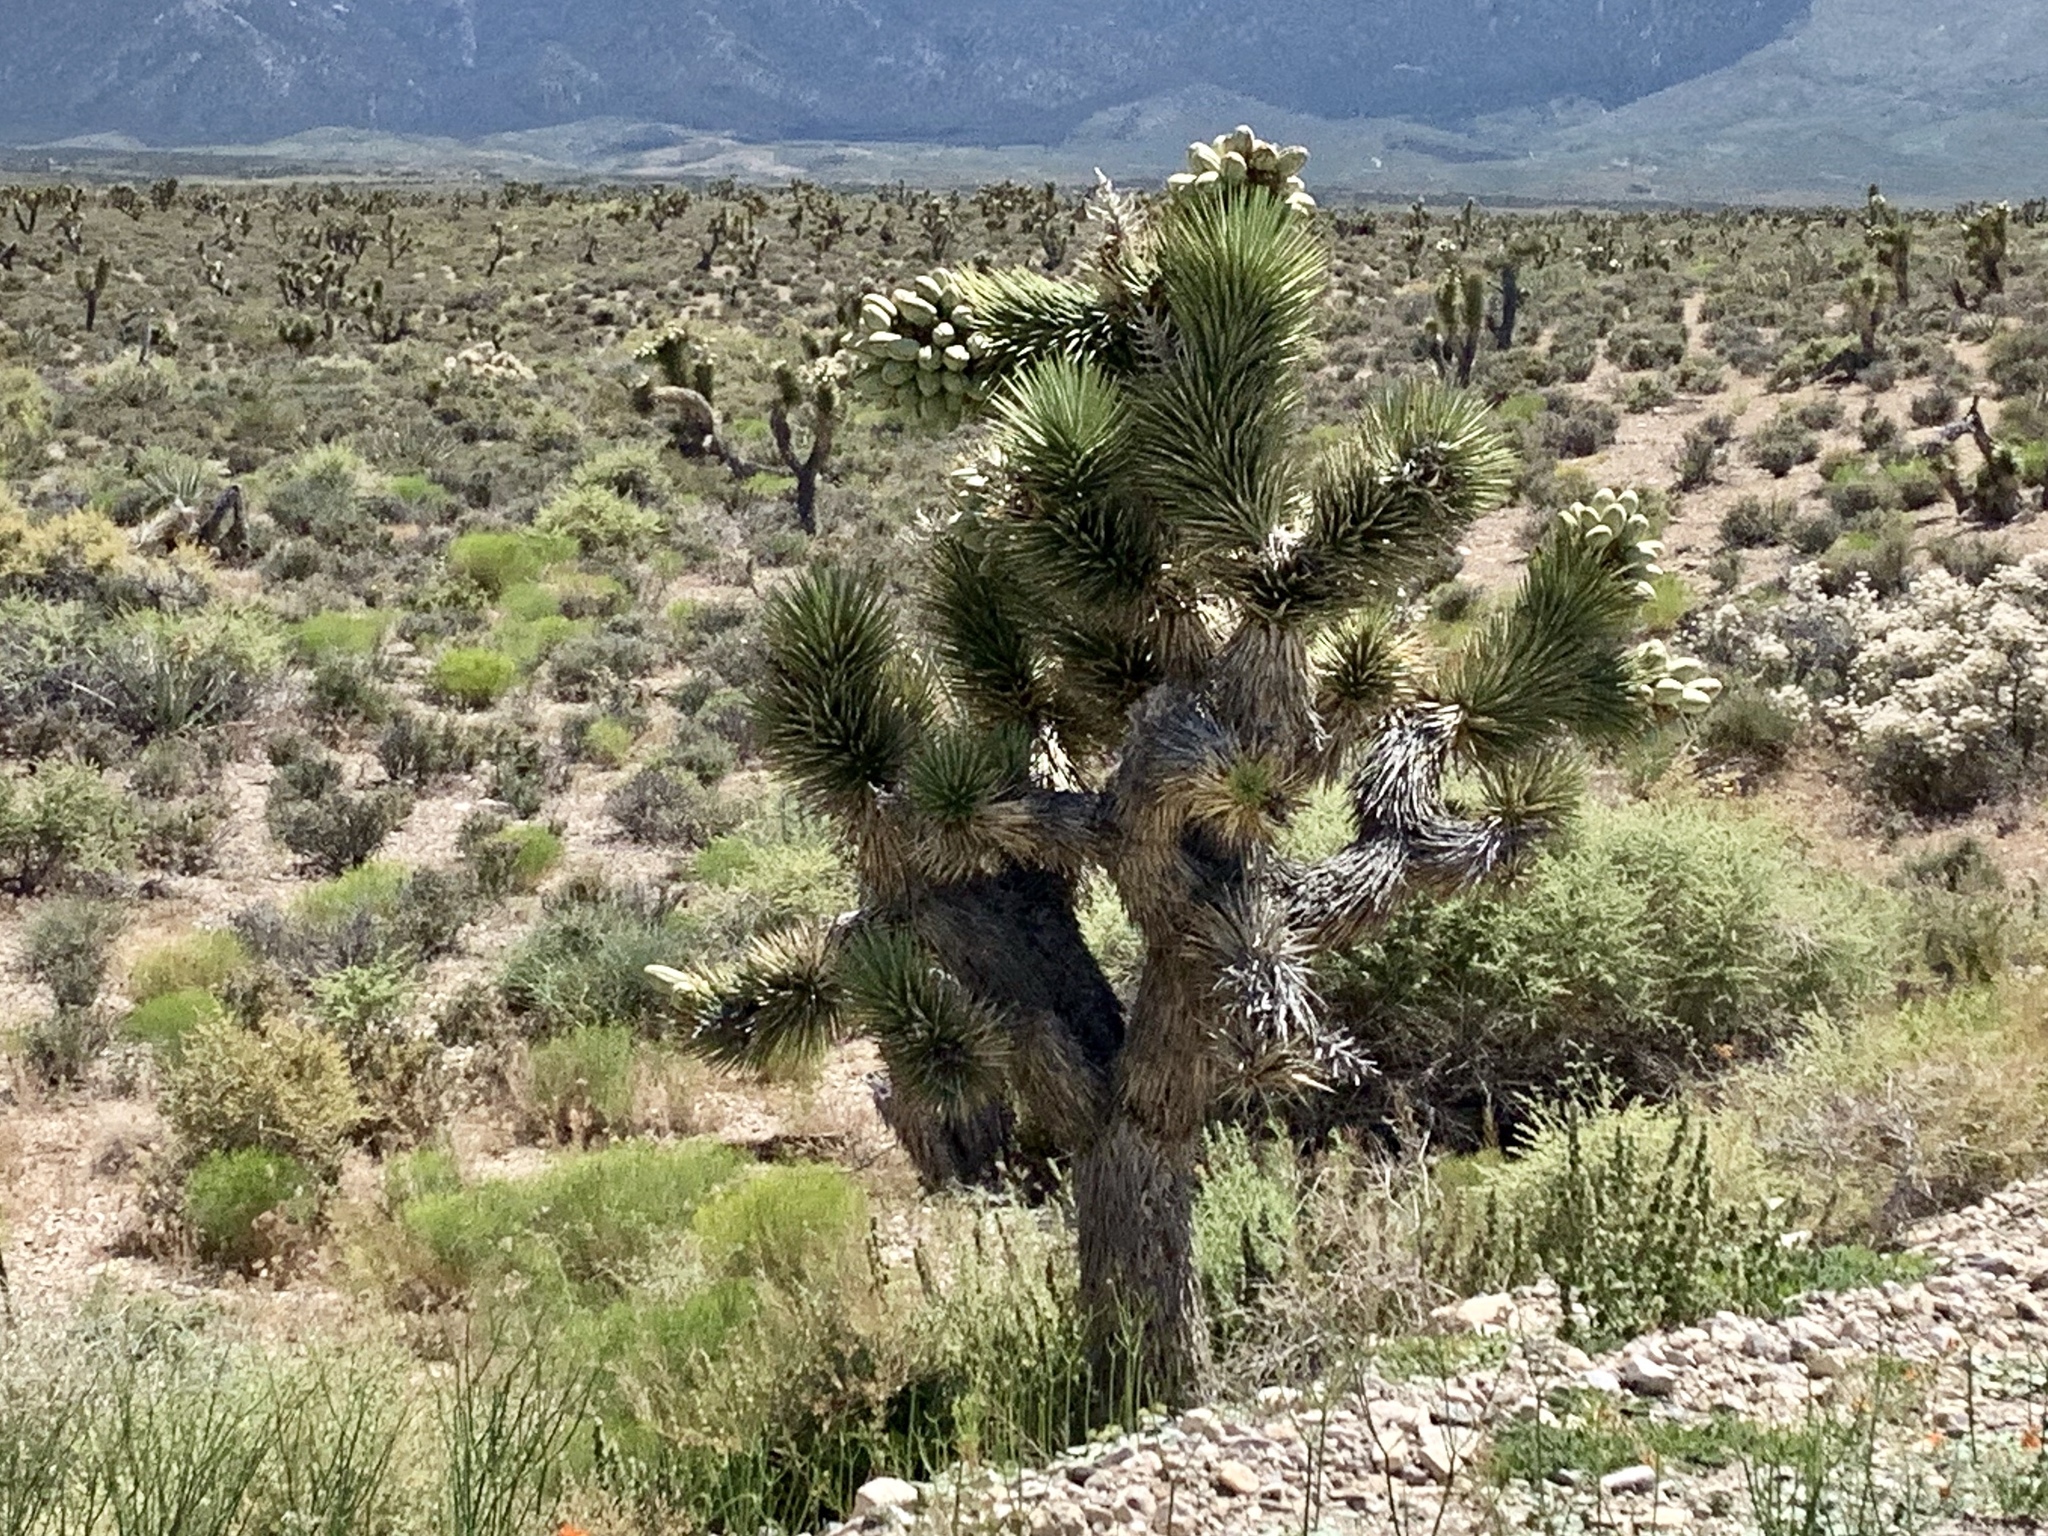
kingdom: Plantae
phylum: Tracheophyta
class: Liliopsida
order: Asparagales
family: Asparagaceae
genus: Yucca
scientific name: Yucca brevifolia
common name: Joshua tree
